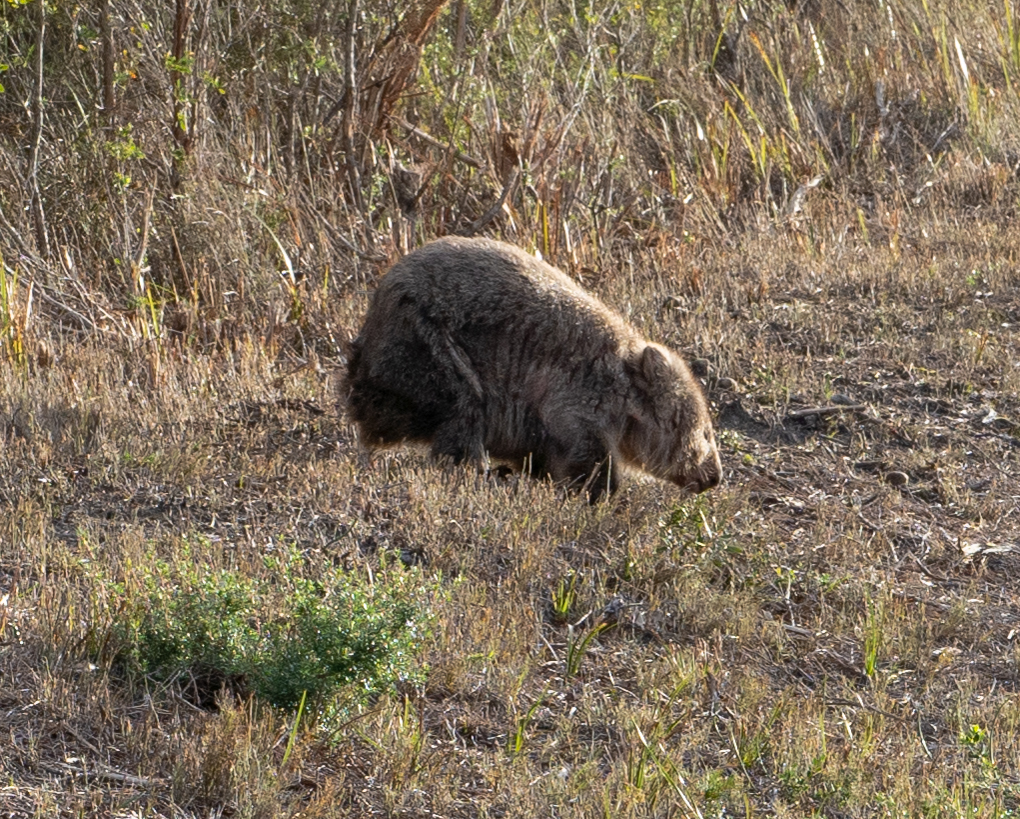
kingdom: Animalia
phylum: Chordata
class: Mammalia
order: Diprotodontia
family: Vombatidae
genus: Vombatus
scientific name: Vombatus ursinus
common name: Common wombat
